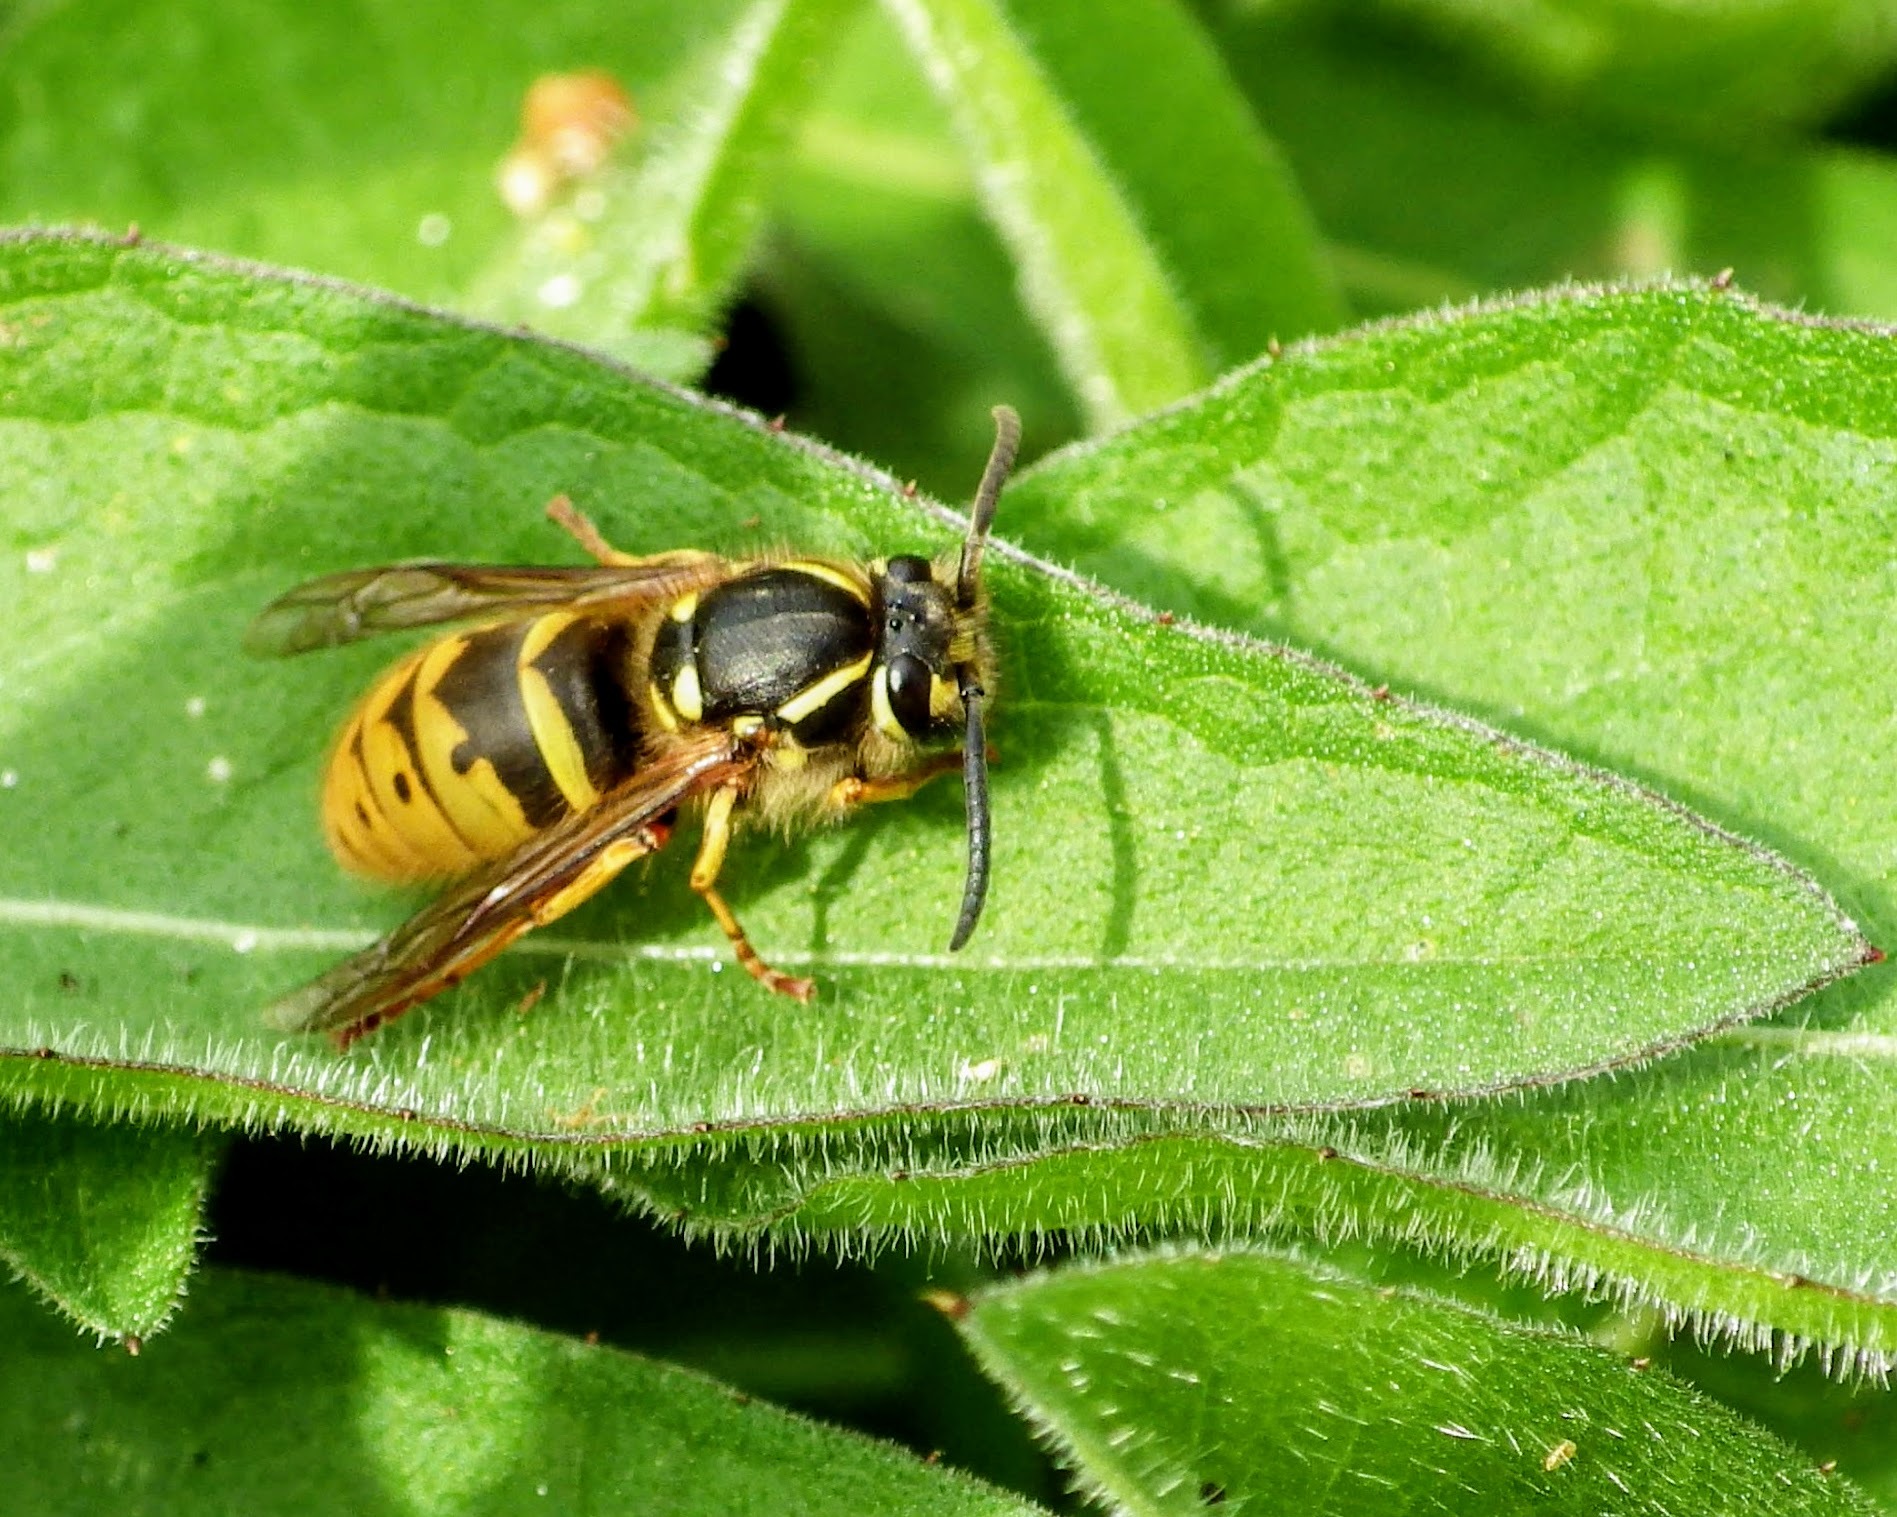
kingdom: Animalia
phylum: Arthropoda
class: Insecta
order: Hymenoptera
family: Vespidae
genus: Vespula
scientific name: Vespula vulgaris
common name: Common wasp
